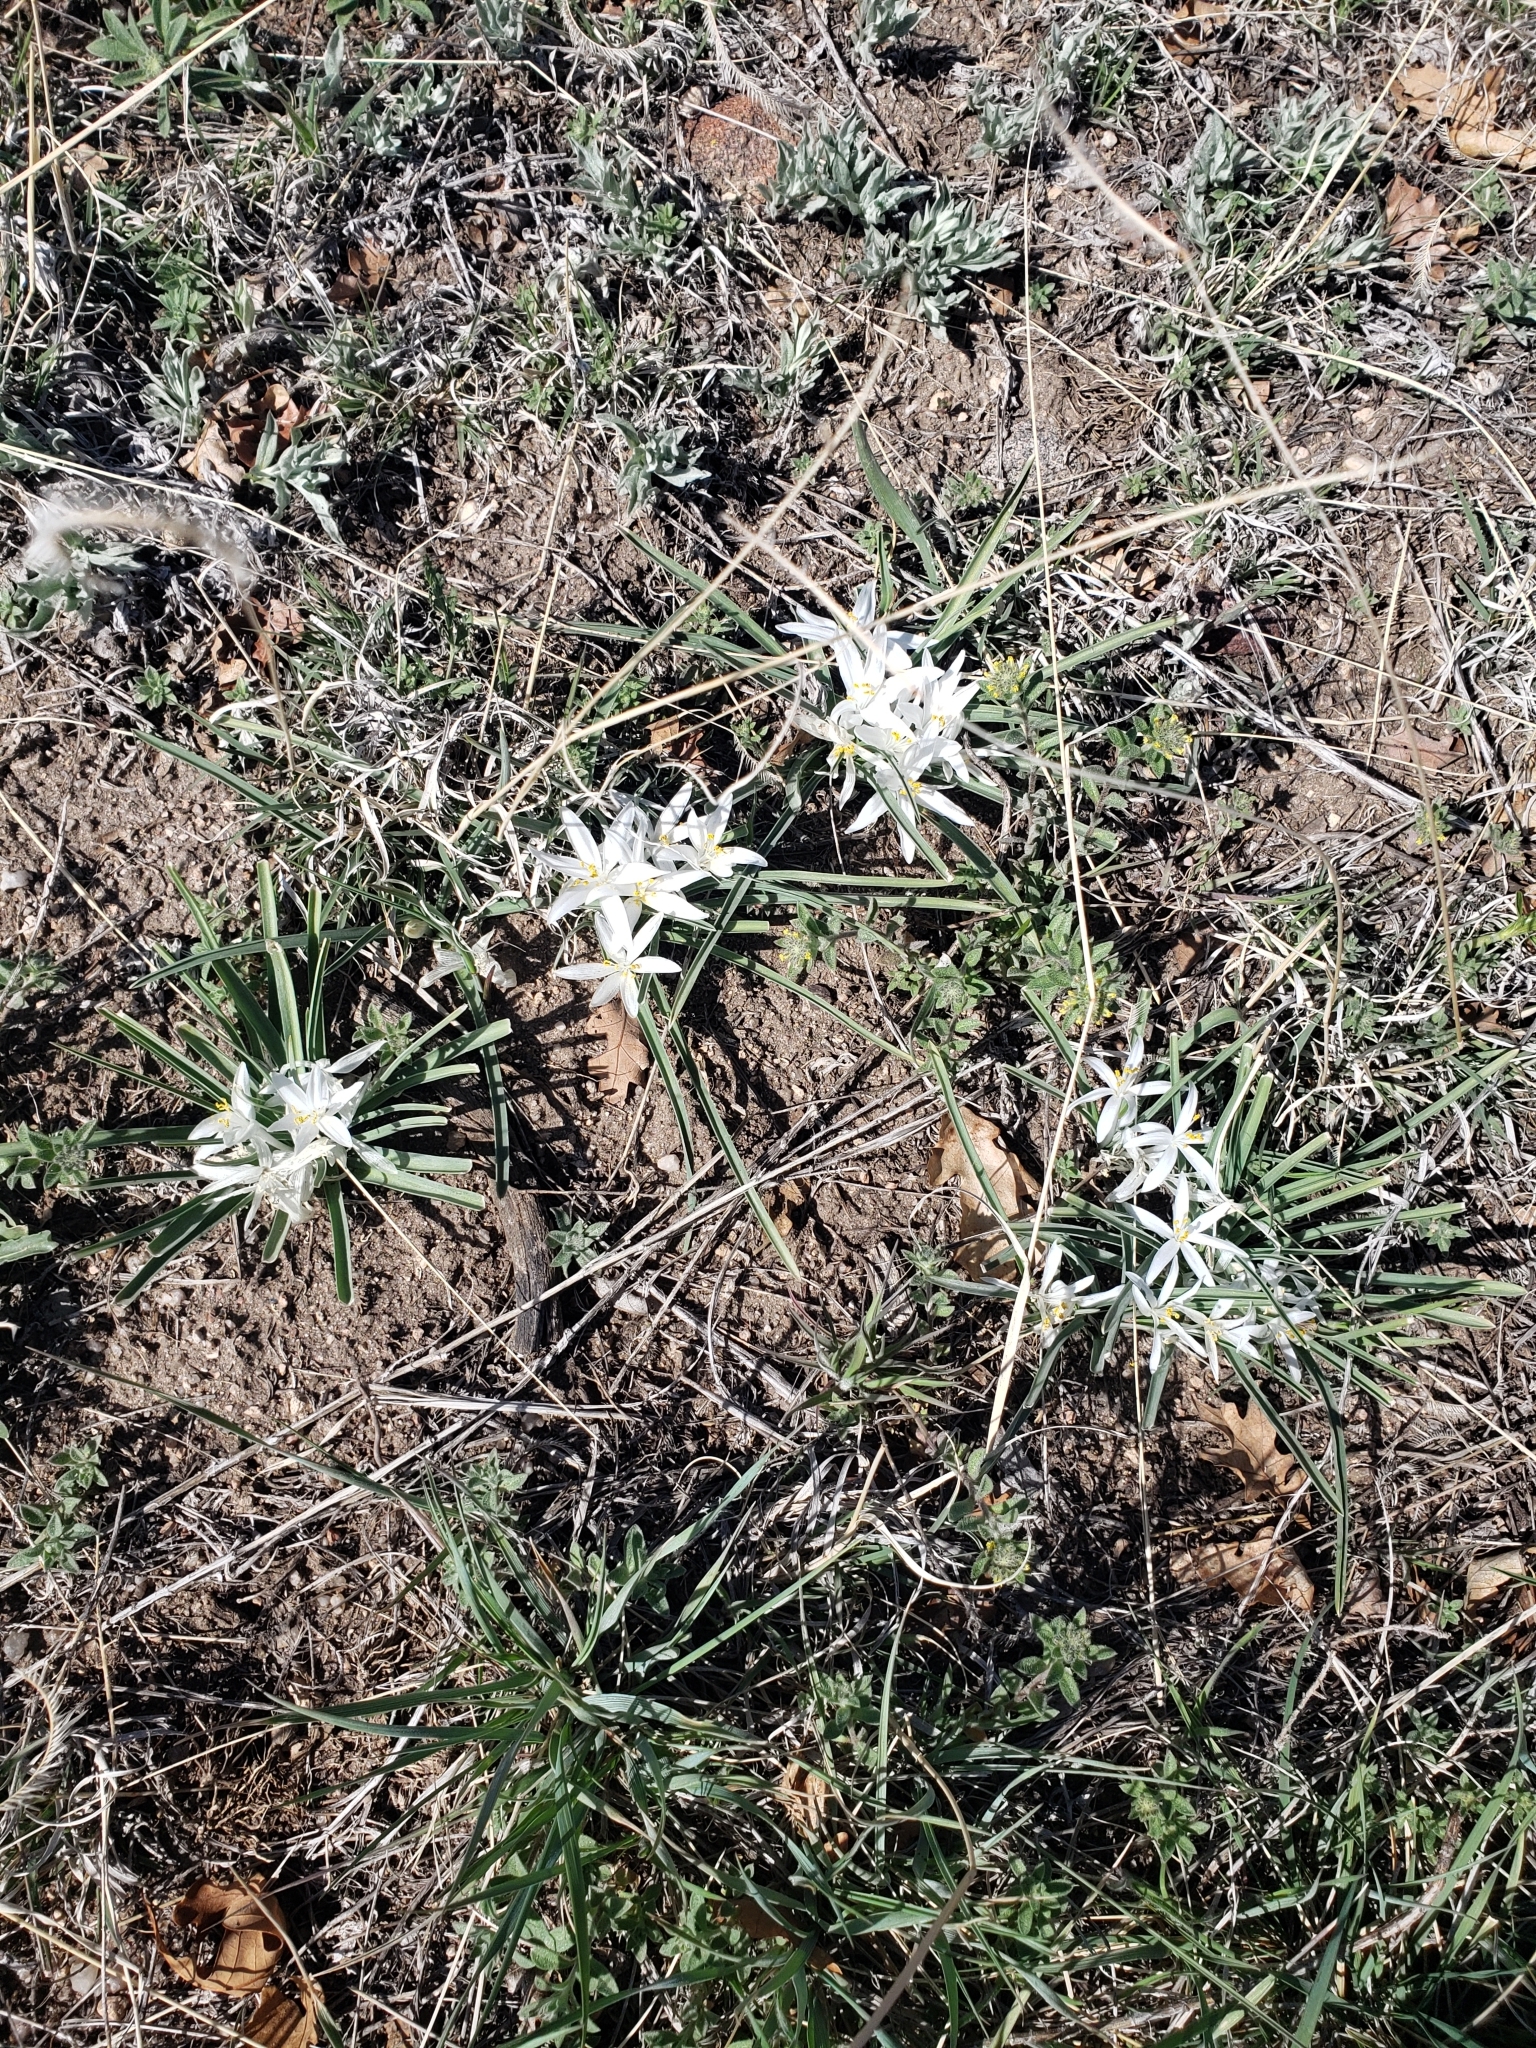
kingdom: Plantae
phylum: Tracheophyta
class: Liliopsida
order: Asparagales
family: Asparagaceae
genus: Leucocrinum
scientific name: Leucocrinum montanum
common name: Mountain-lily
